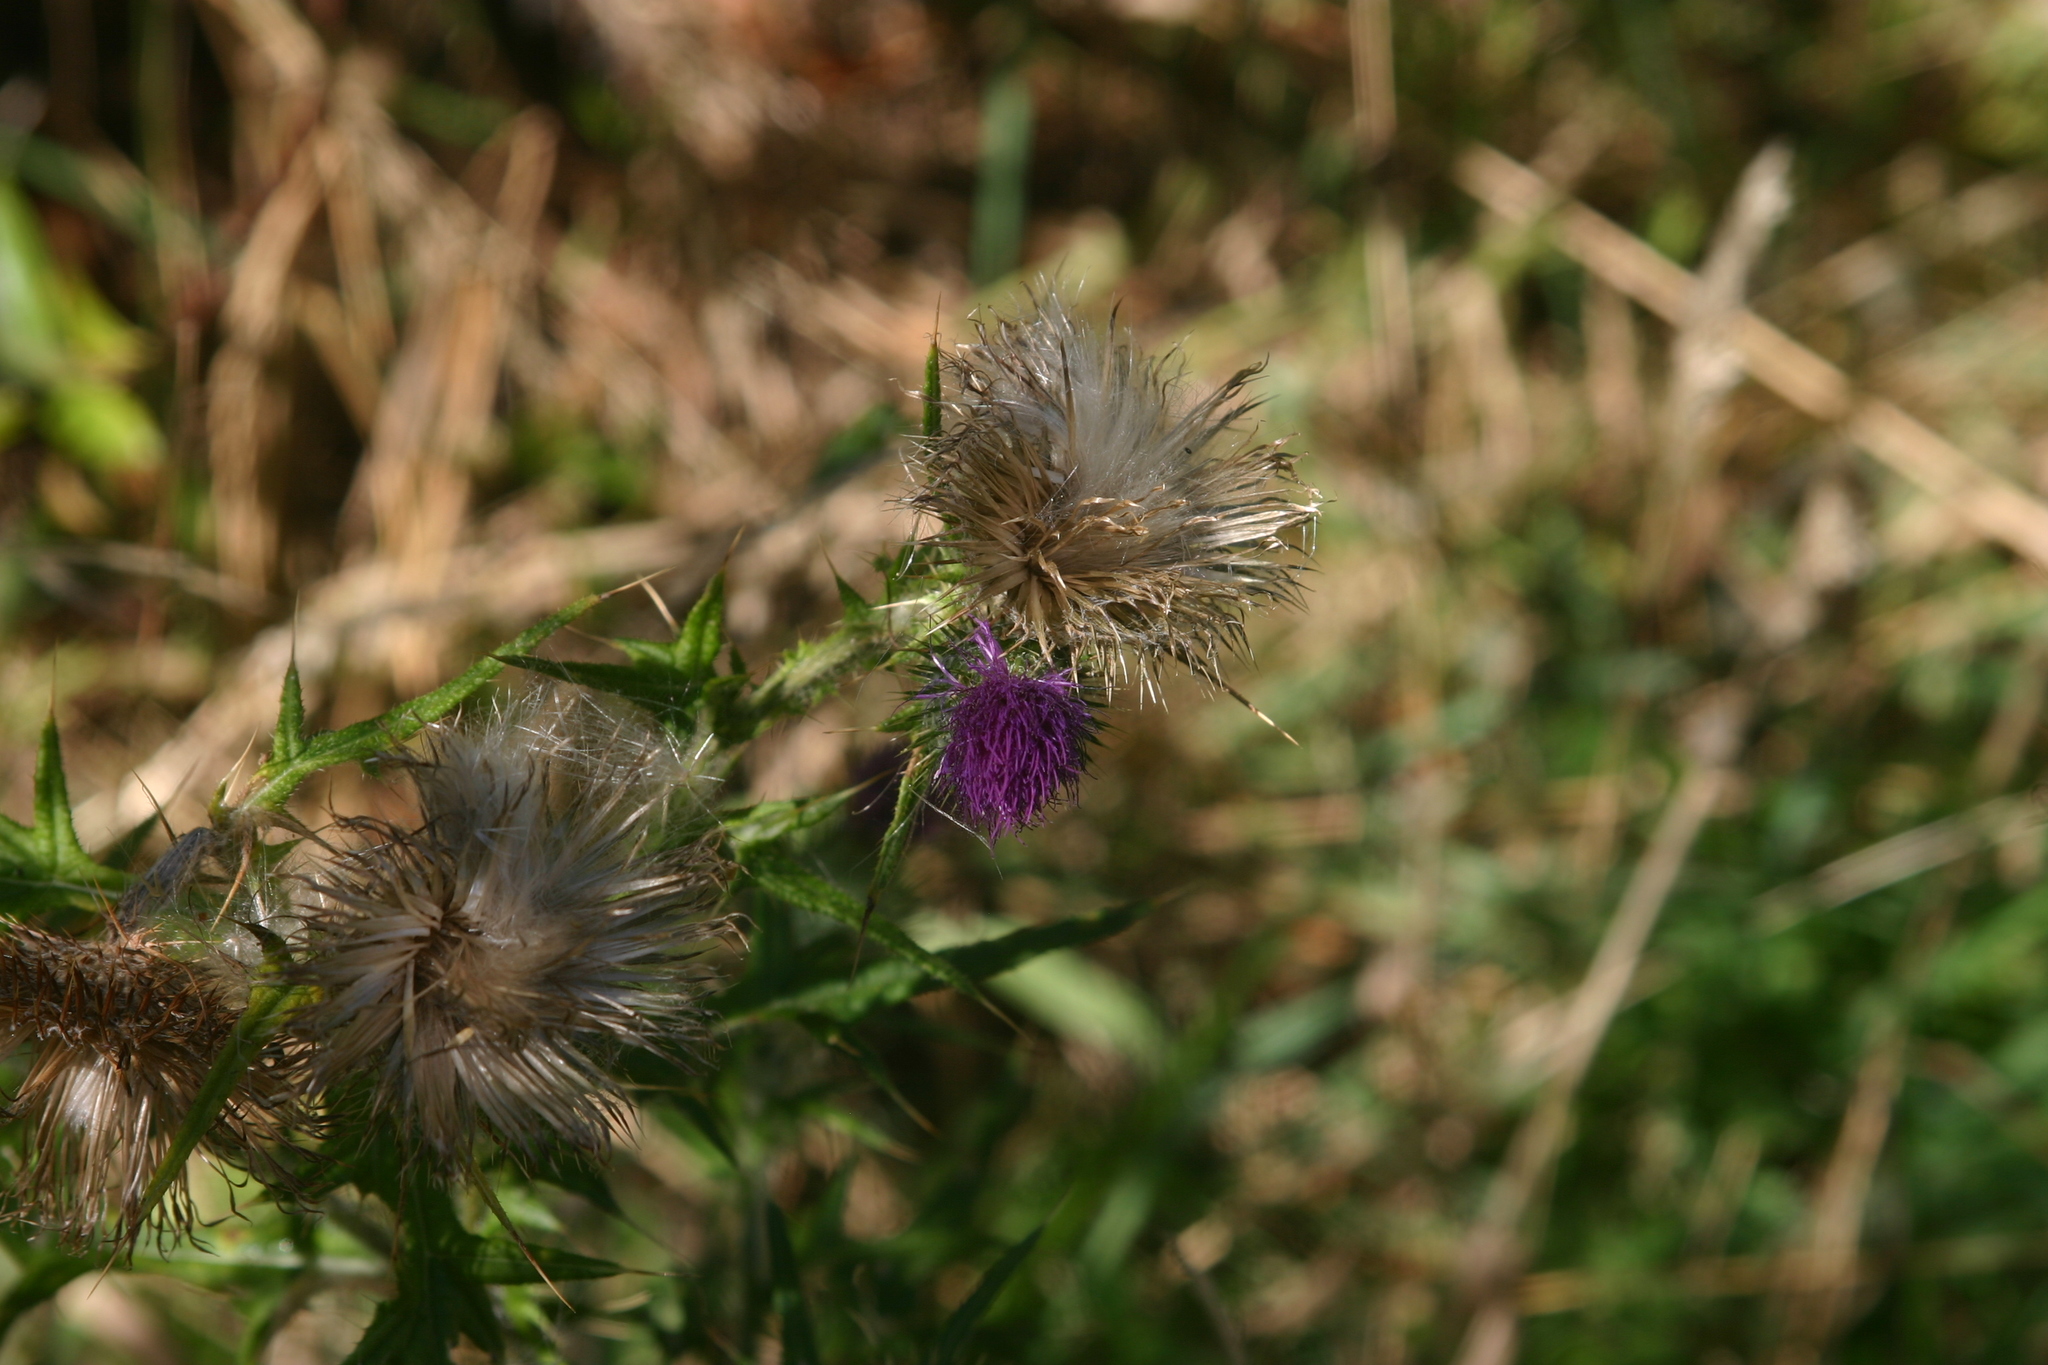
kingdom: Plantae
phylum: Tracheophyta
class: Magnoliopsida
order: Asterales
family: Asteraceae
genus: Cirsium
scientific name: Cirsium vulgare
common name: Bull thistle
